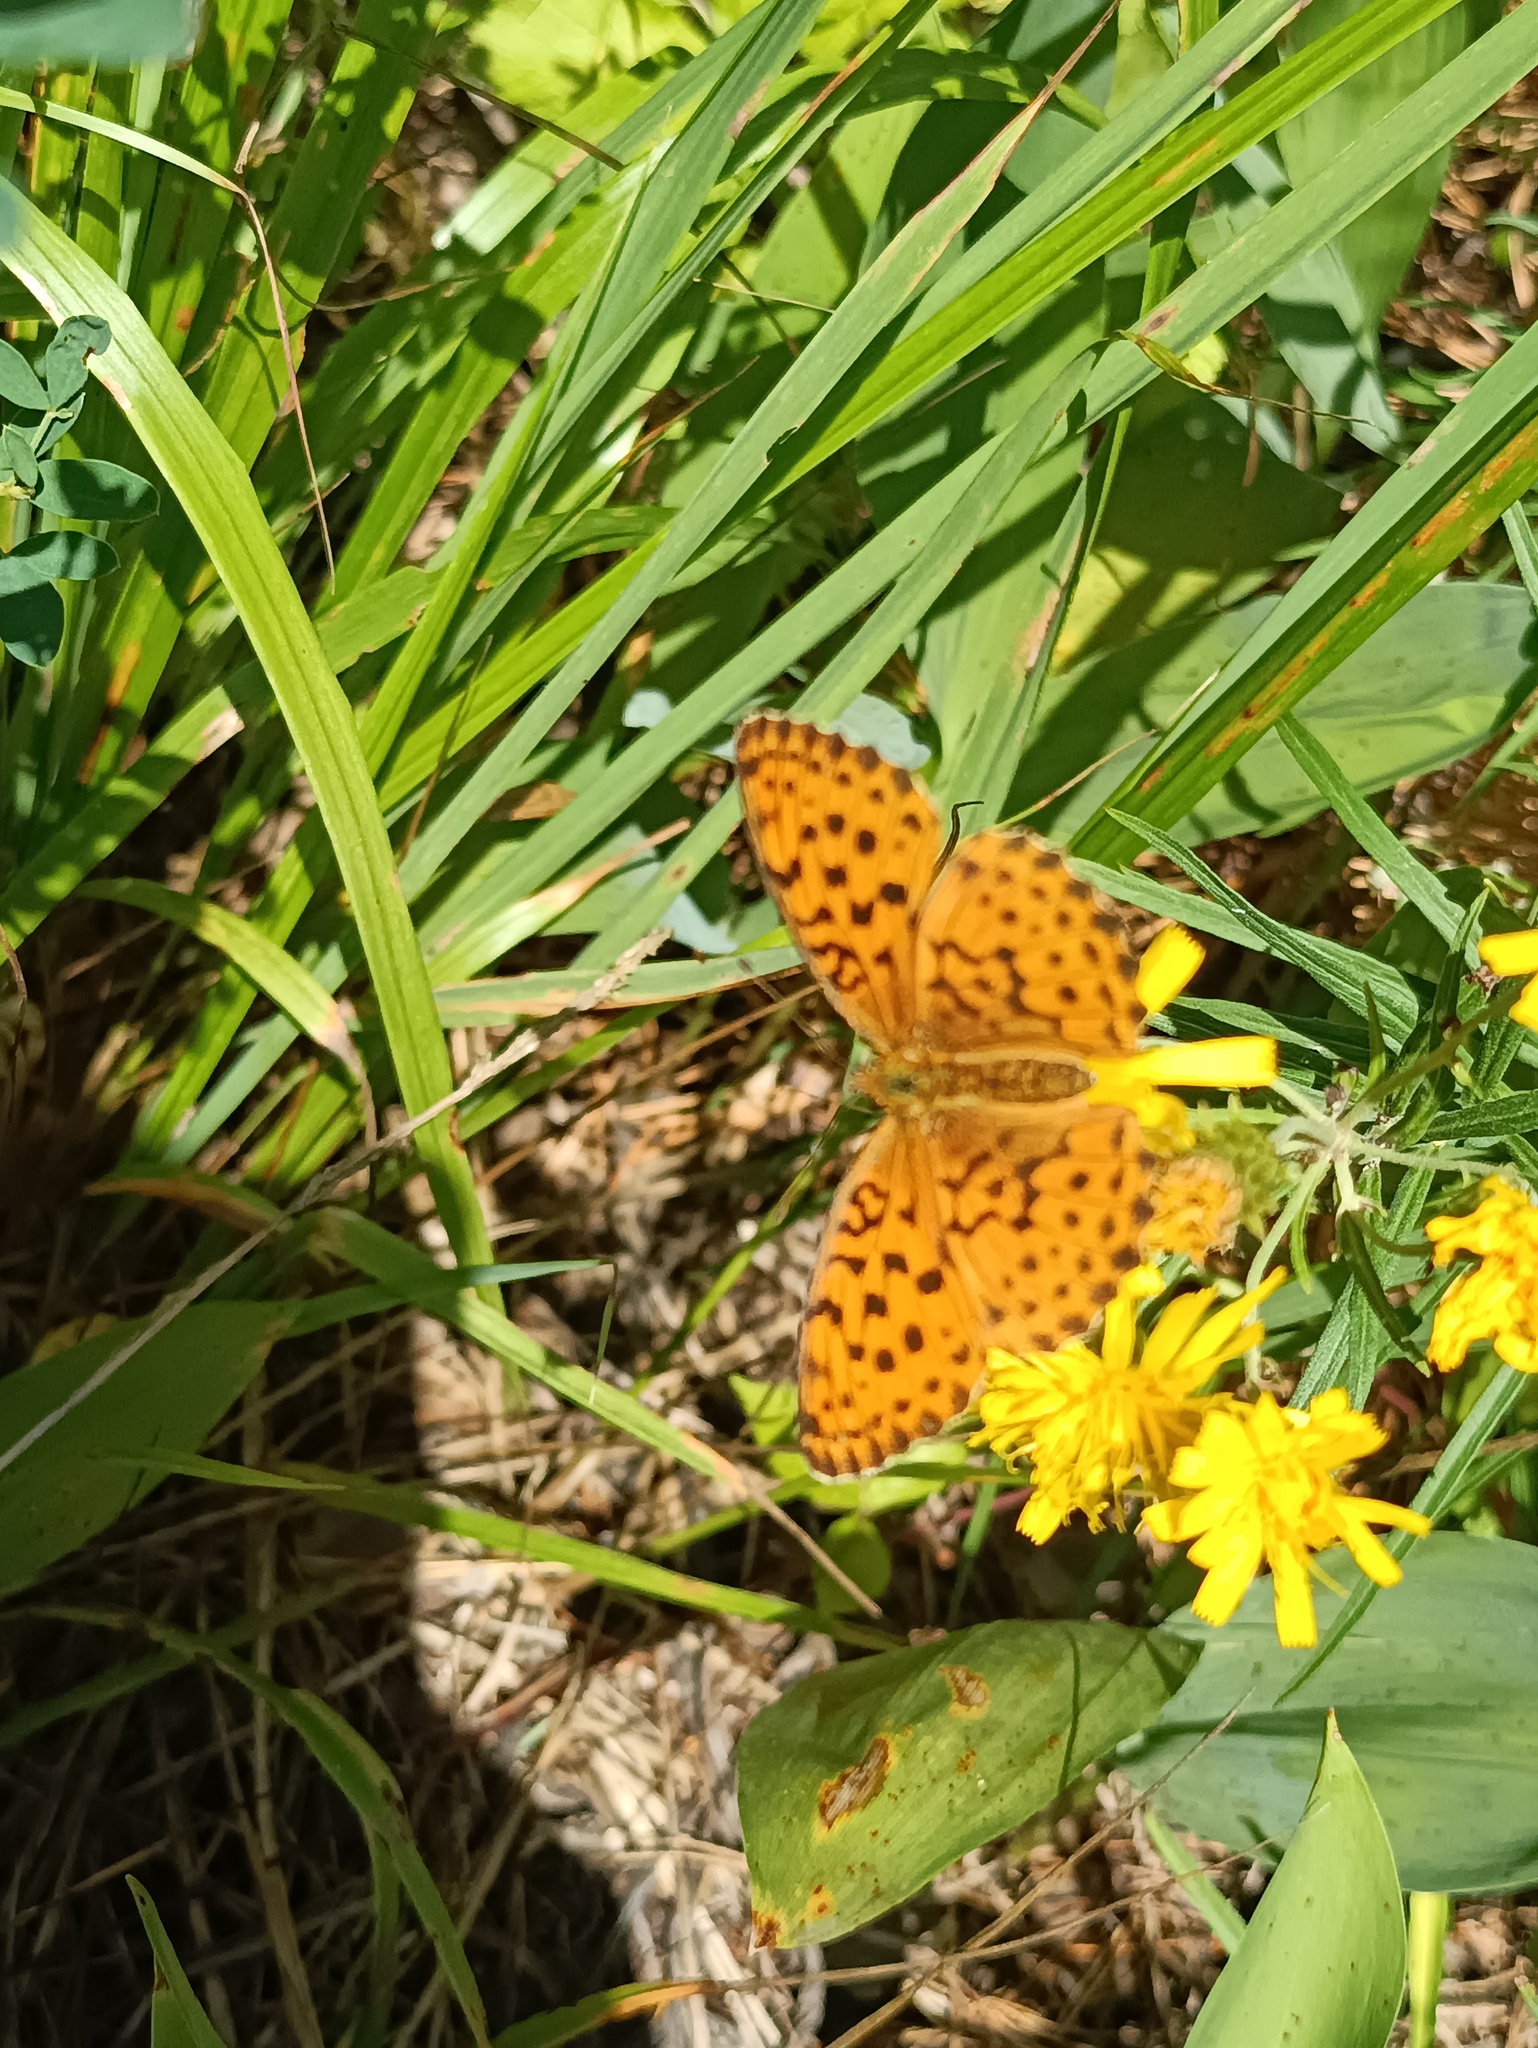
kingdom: Animalia
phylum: Arthropoda
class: Insecta
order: Lepidoptera
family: Nymphalidae
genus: Brenthis
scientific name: Brenthis daphne
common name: Marbled fritillary
